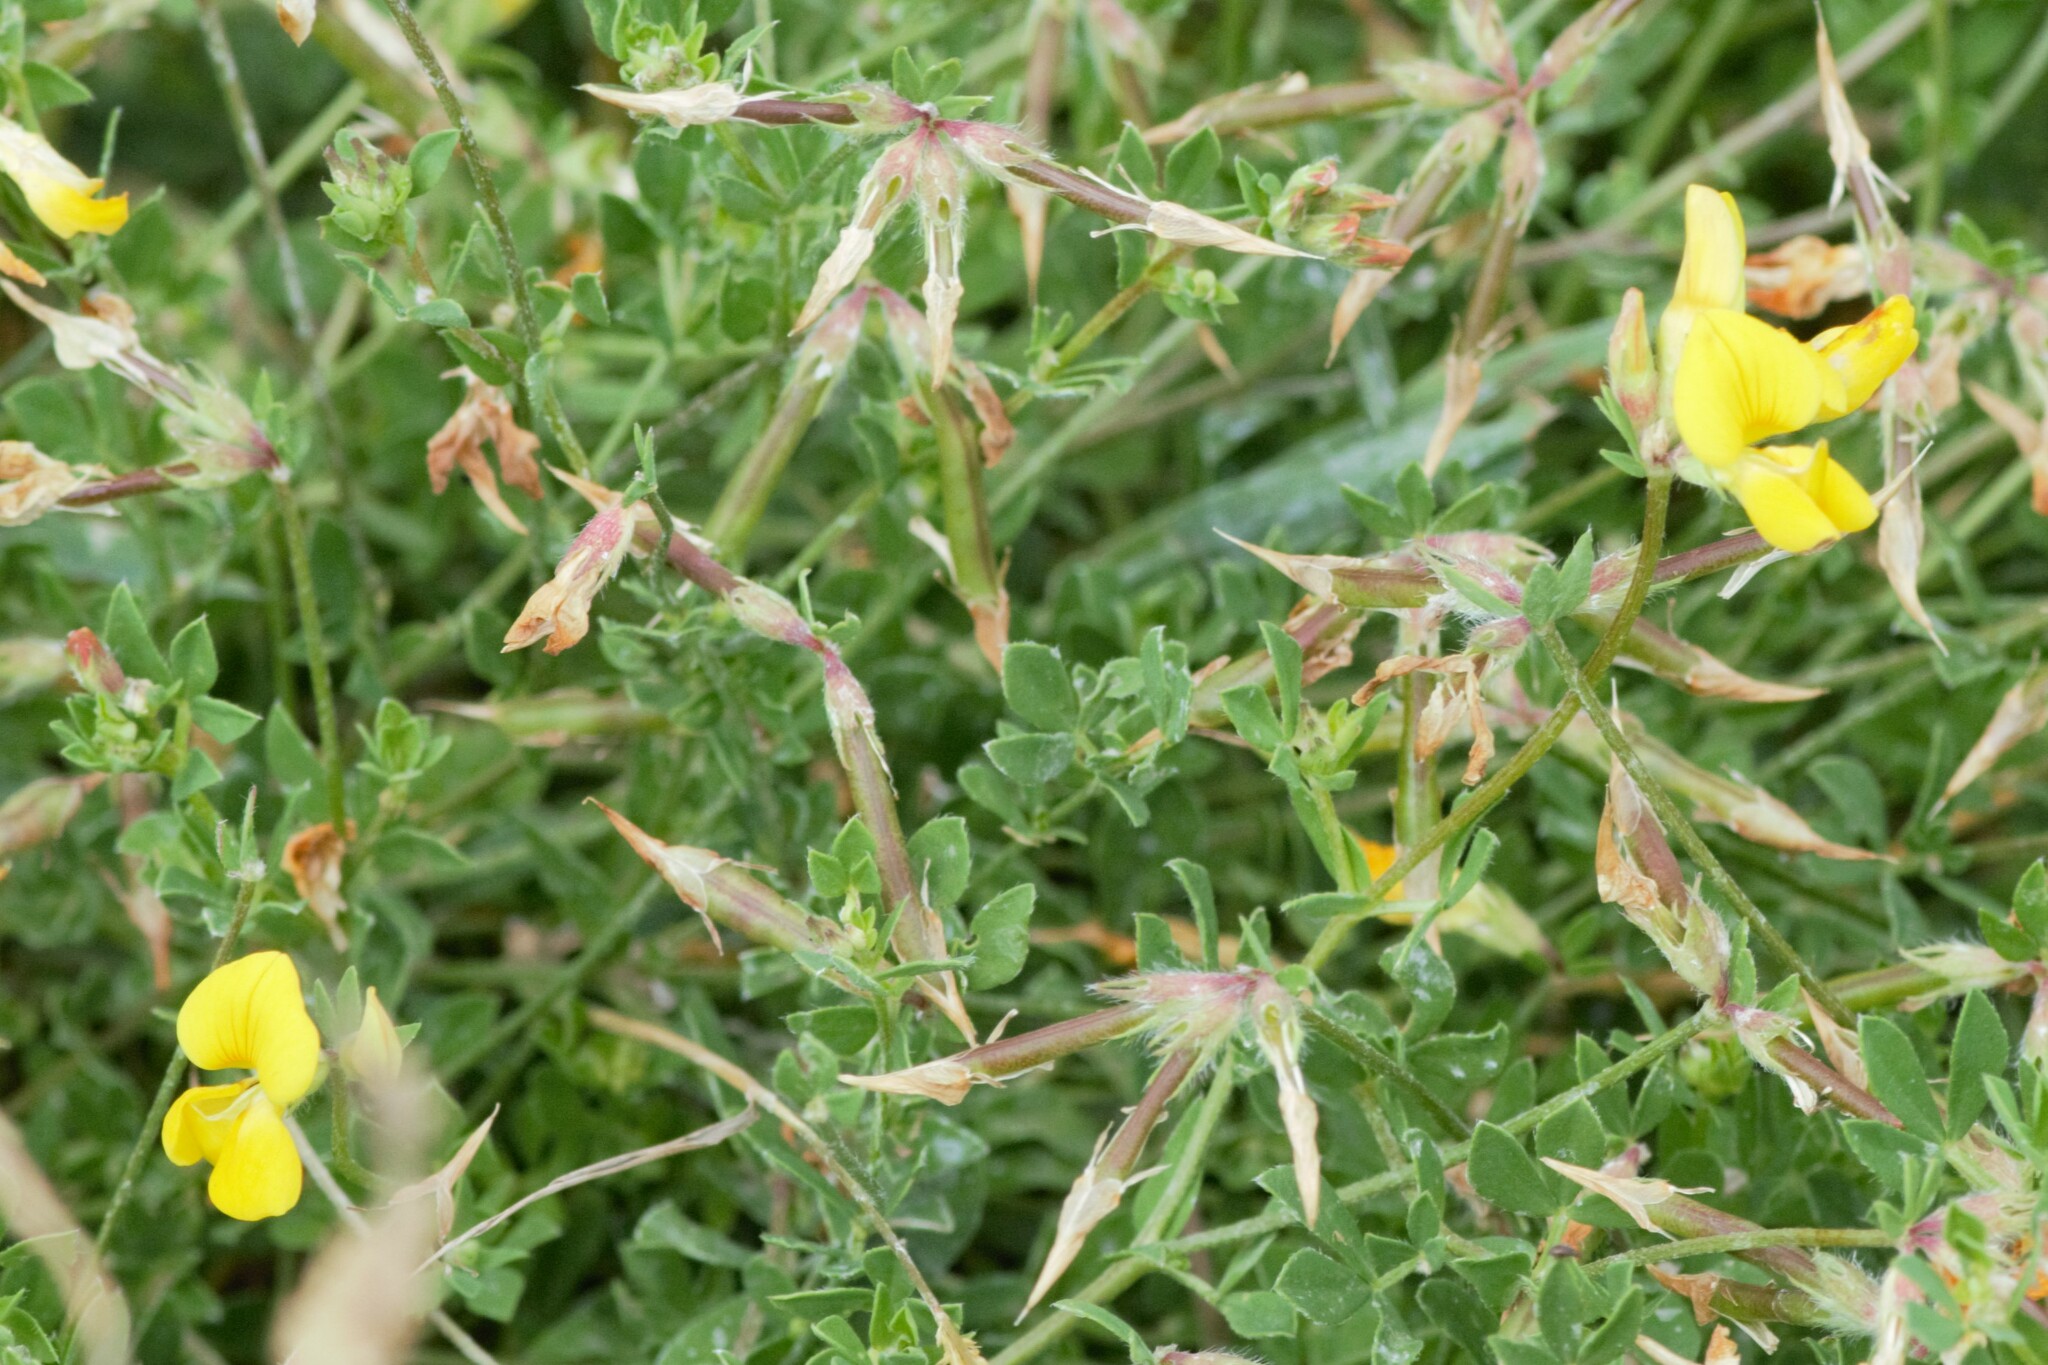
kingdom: Plantae
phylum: Tracheophyta
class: Magnoliopsida
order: Fabales
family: Fabaceae
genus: Lotus
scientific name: Lotus corniculatus
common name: Common bird's-foot-trefoil
